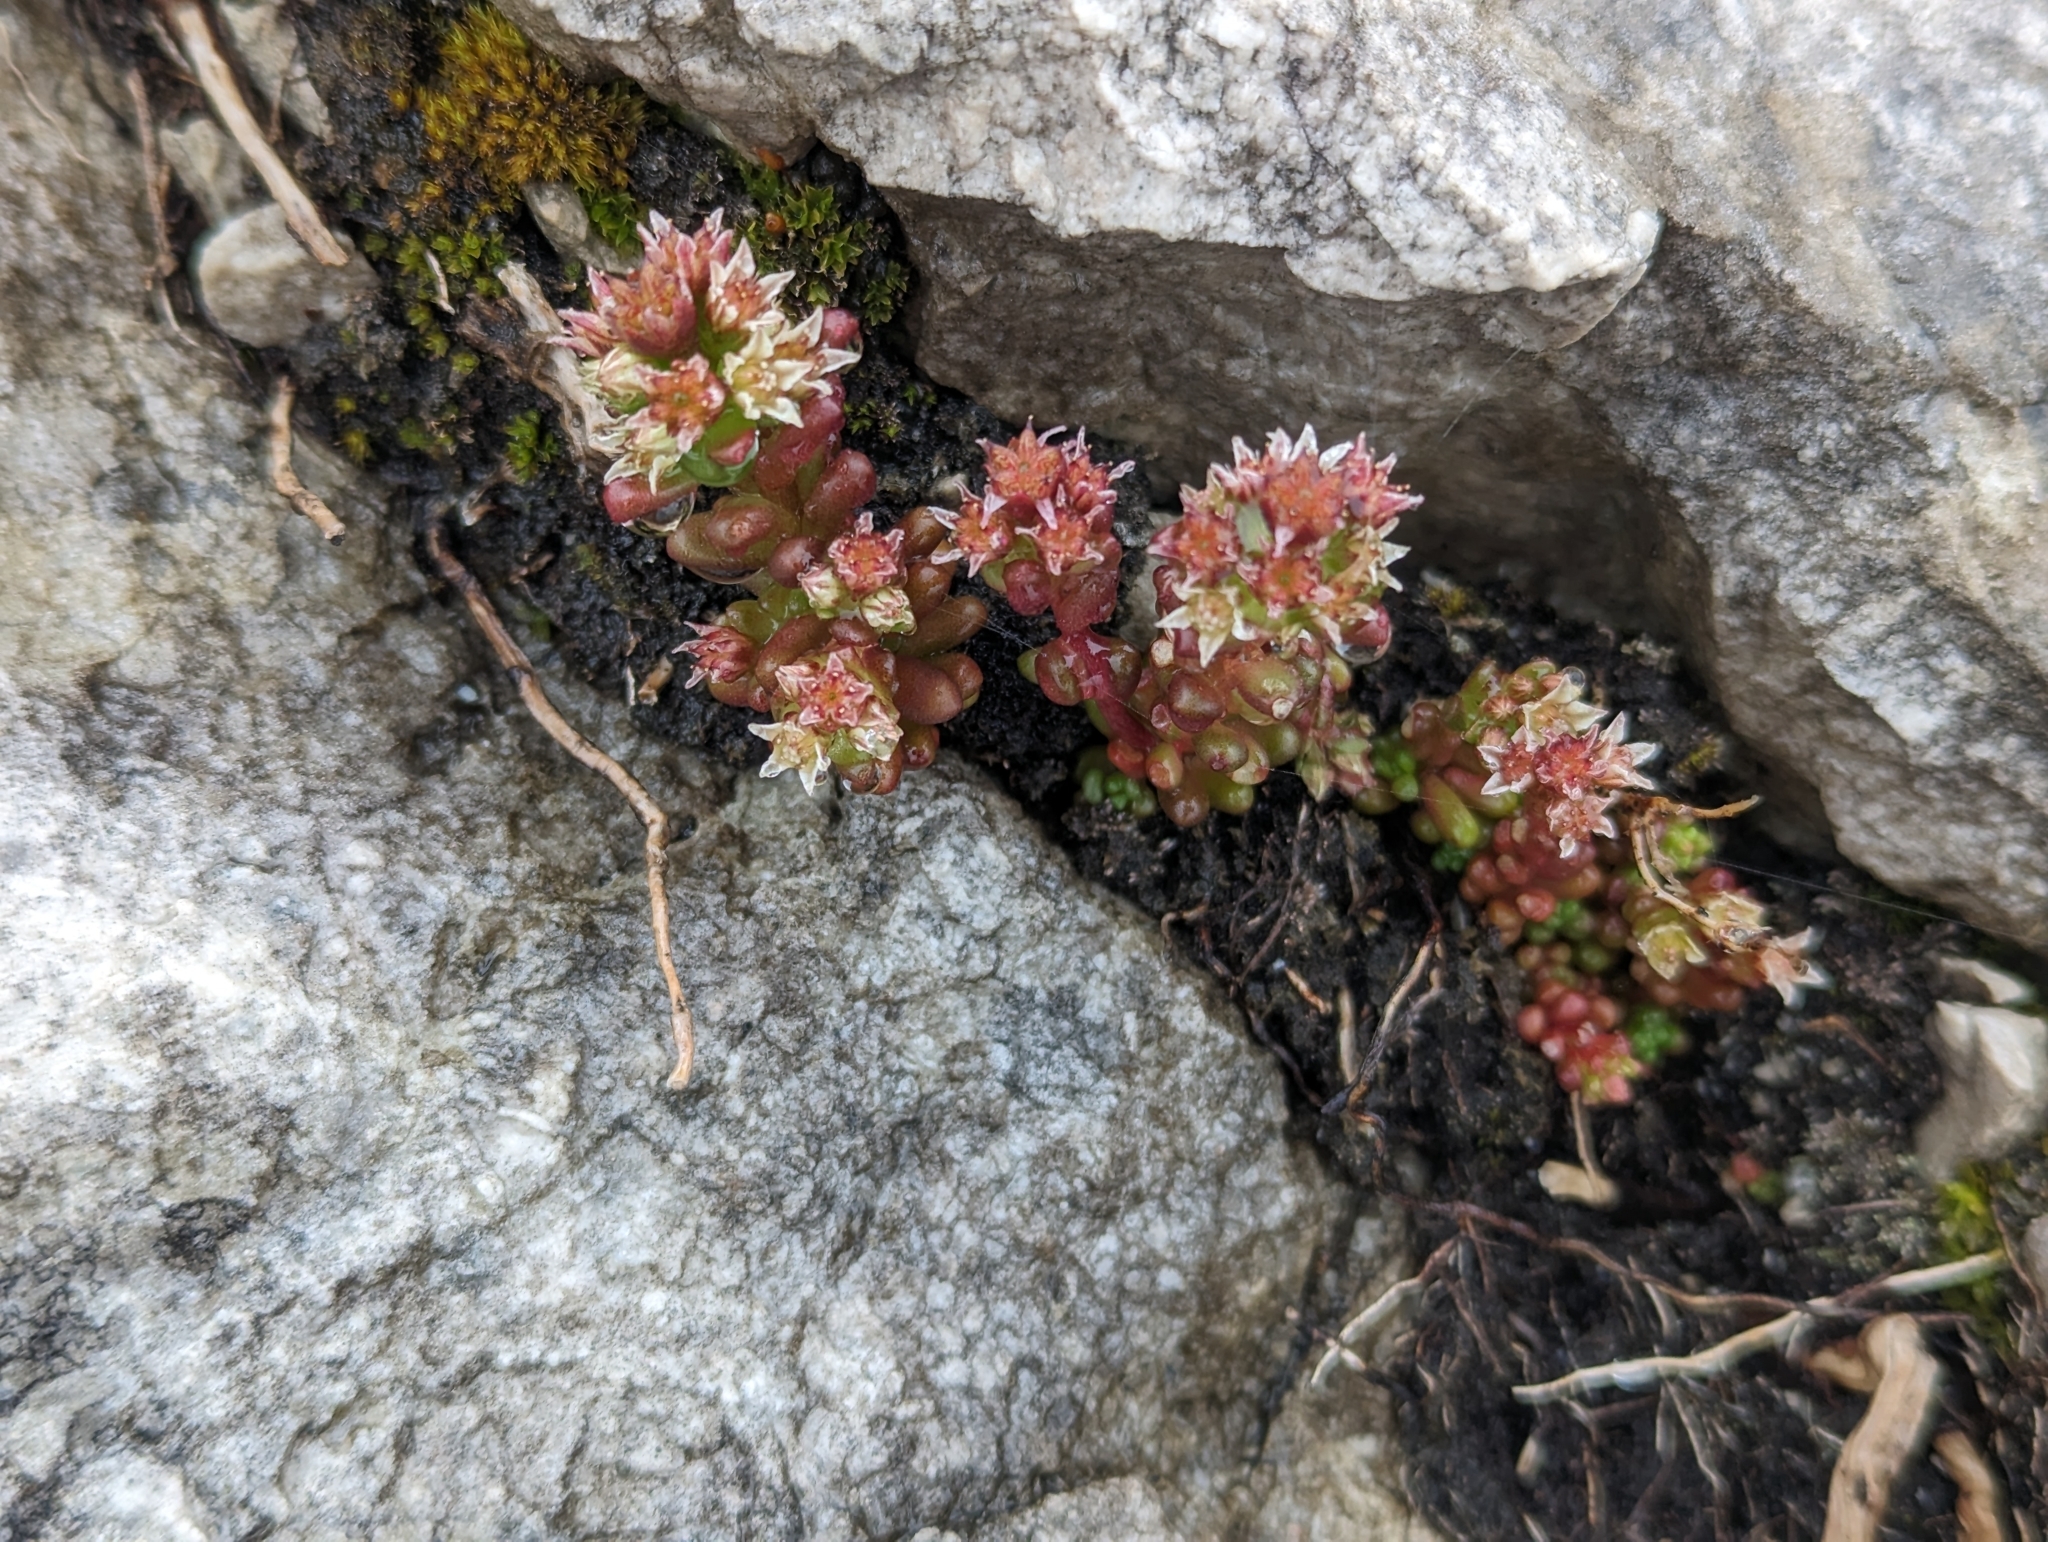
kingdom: Plantae
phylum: Tracheophyta
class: Magnoliopsida
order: Saxifragales
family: Crassulaceae
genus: Sedum
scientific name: Sedum atratum
